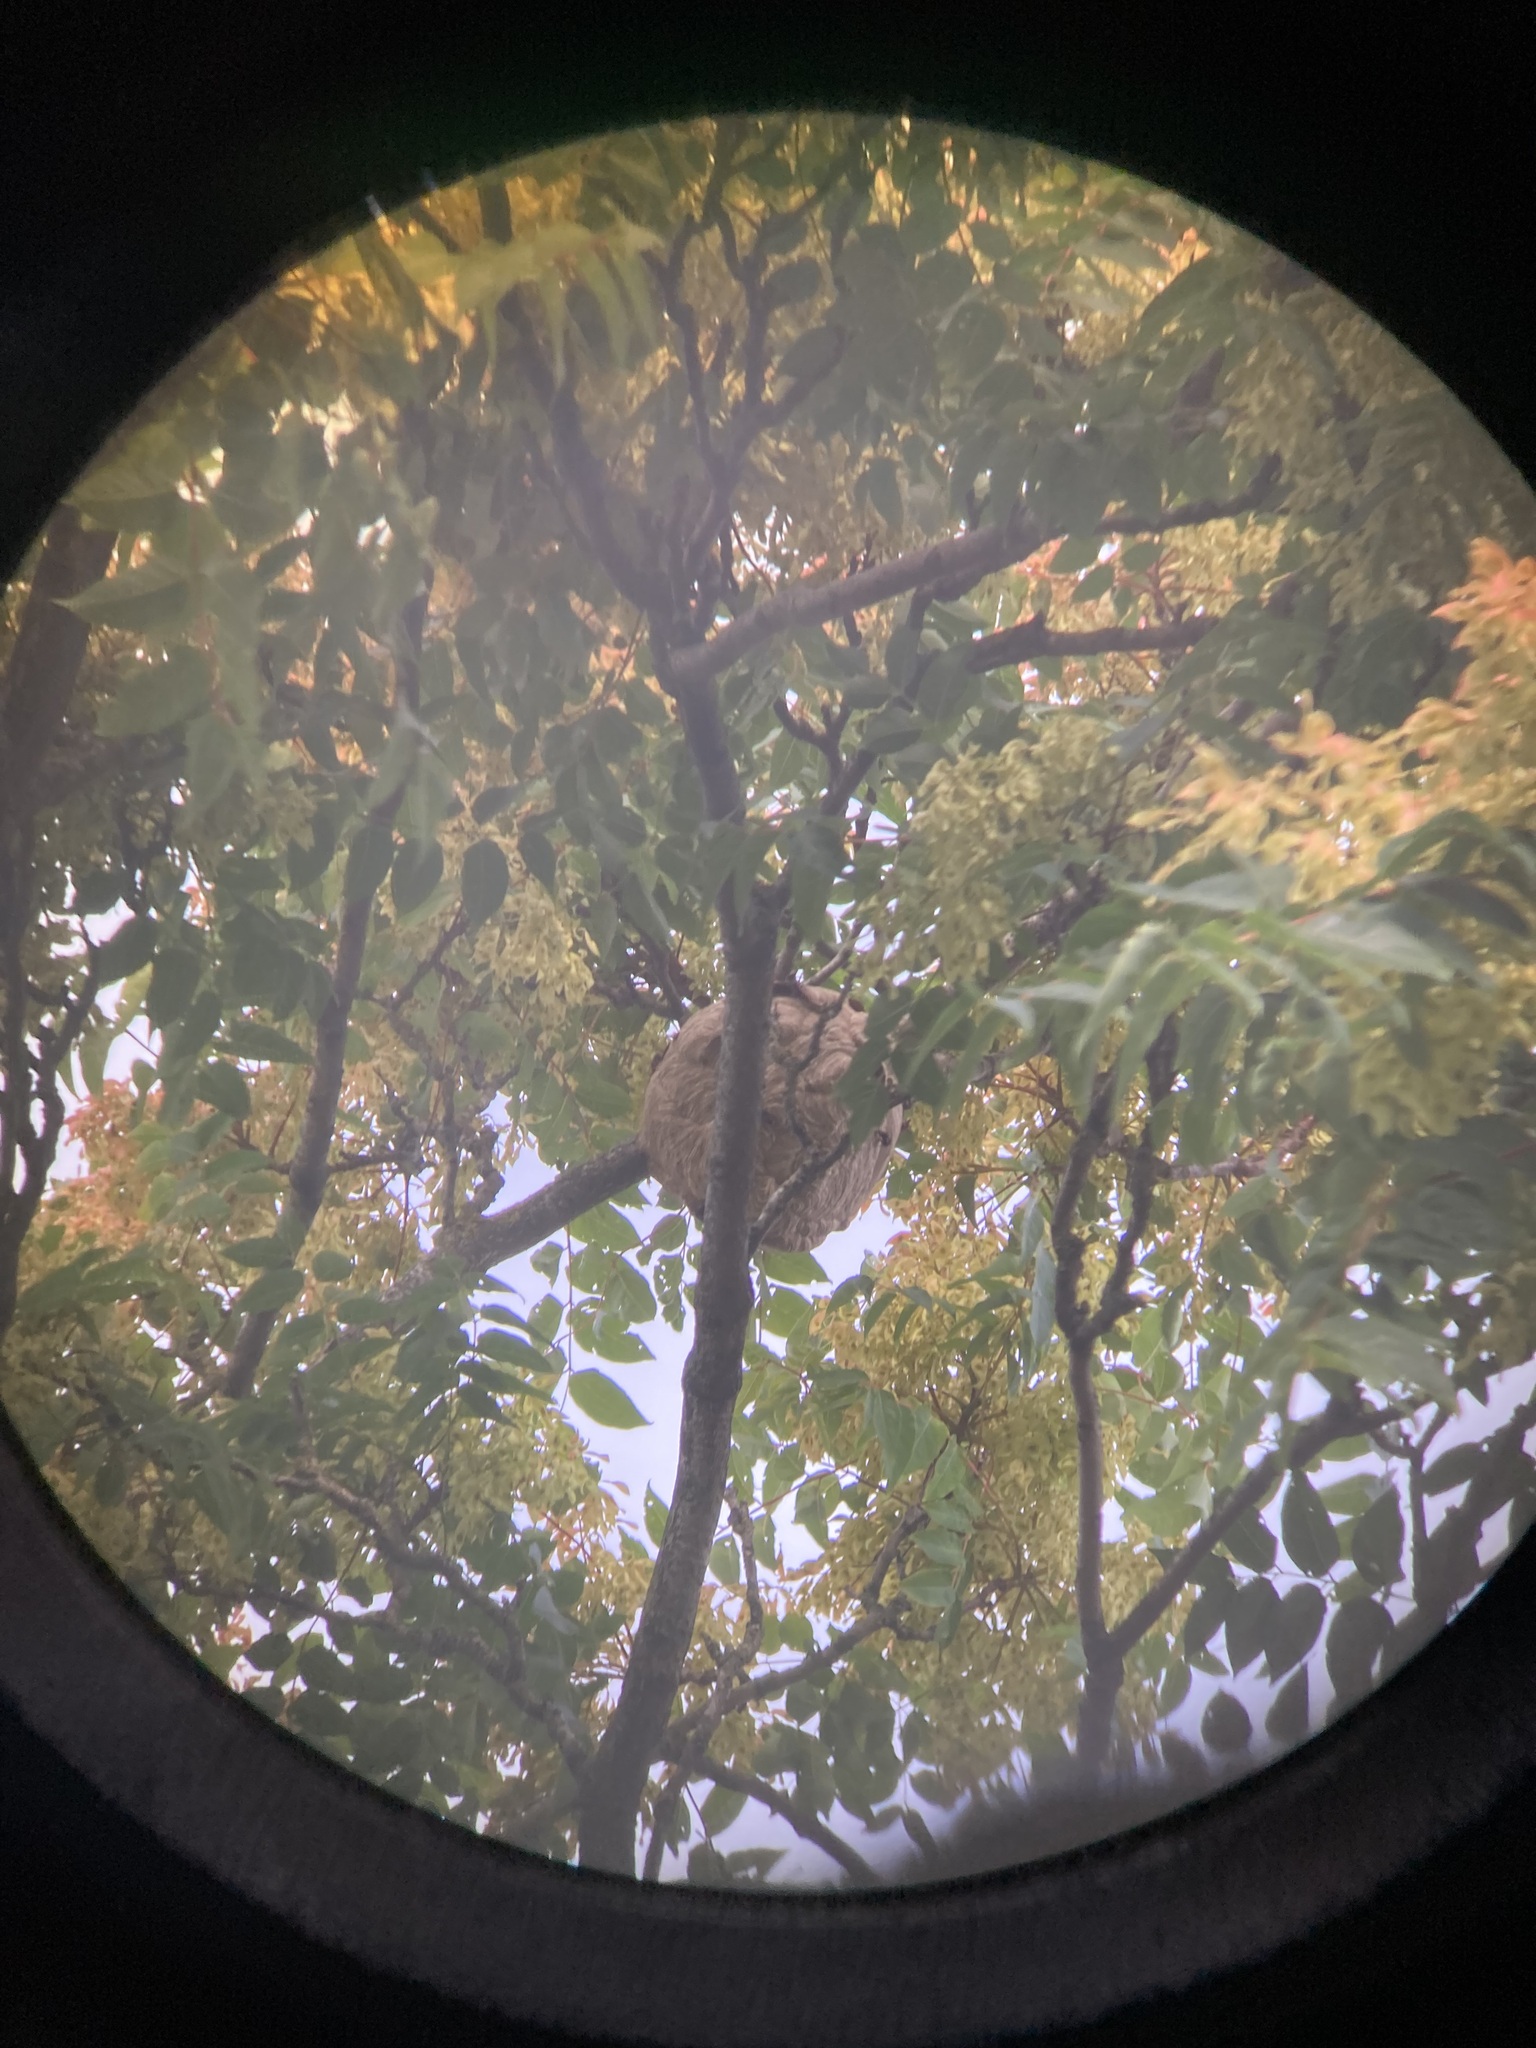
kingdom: Animalia
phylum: Arthropoda
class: Insecta
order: Hymenoptera
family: Vespidae
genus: Vespa
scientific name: Vespa velutina
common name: Asian hornet
